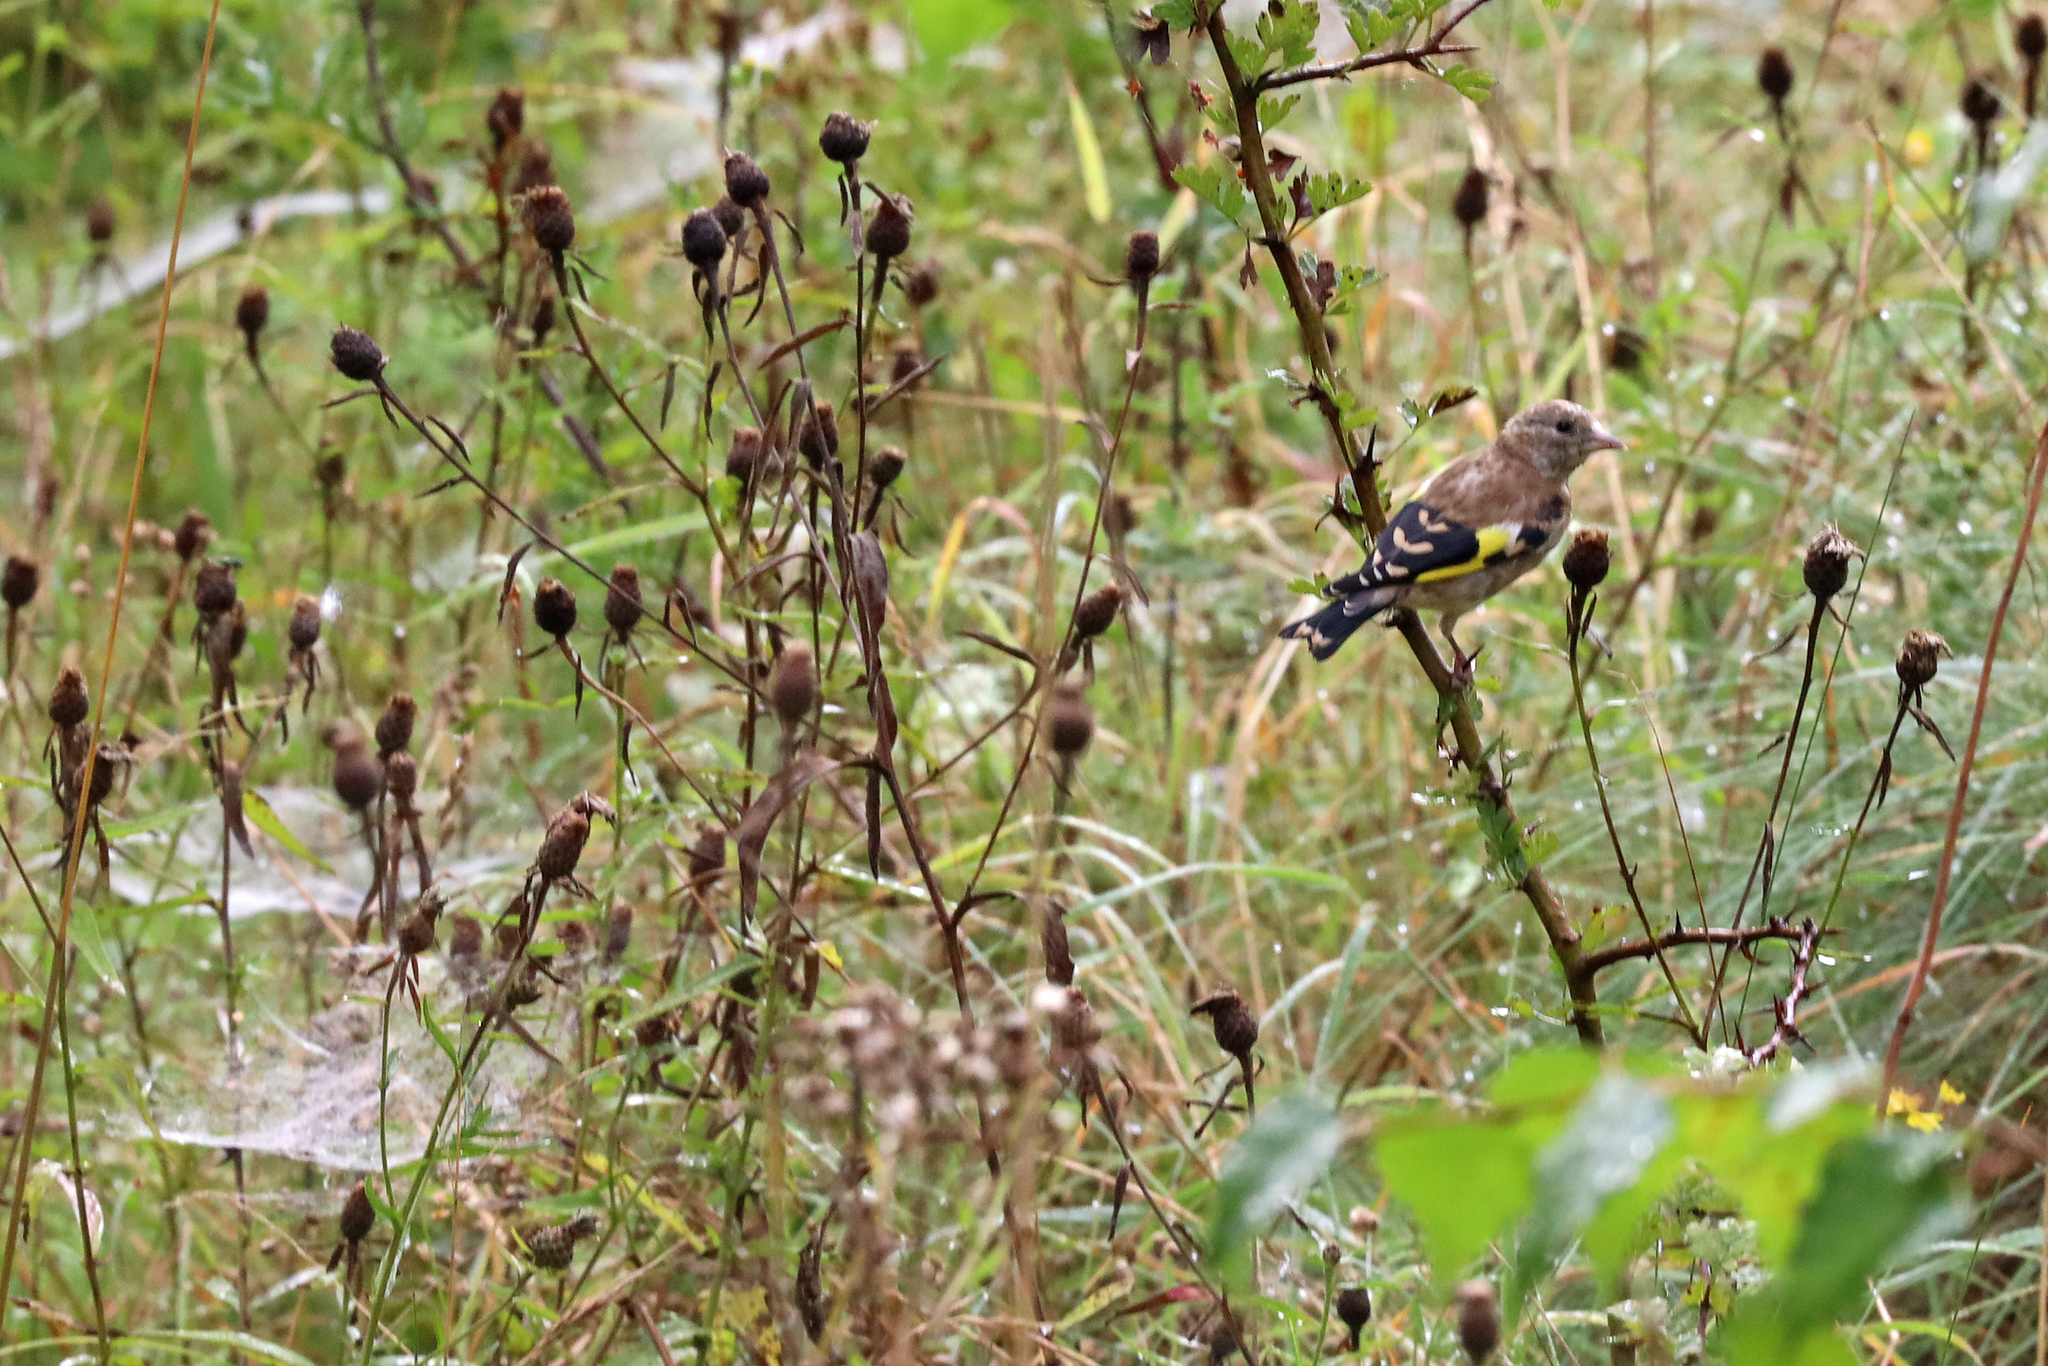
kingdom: Animalia
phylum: Chordata
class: Aves
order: Passeriformes
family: Fringillidae
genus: Carduelis
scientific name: Carduelis carduelis
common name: European goldfinch
